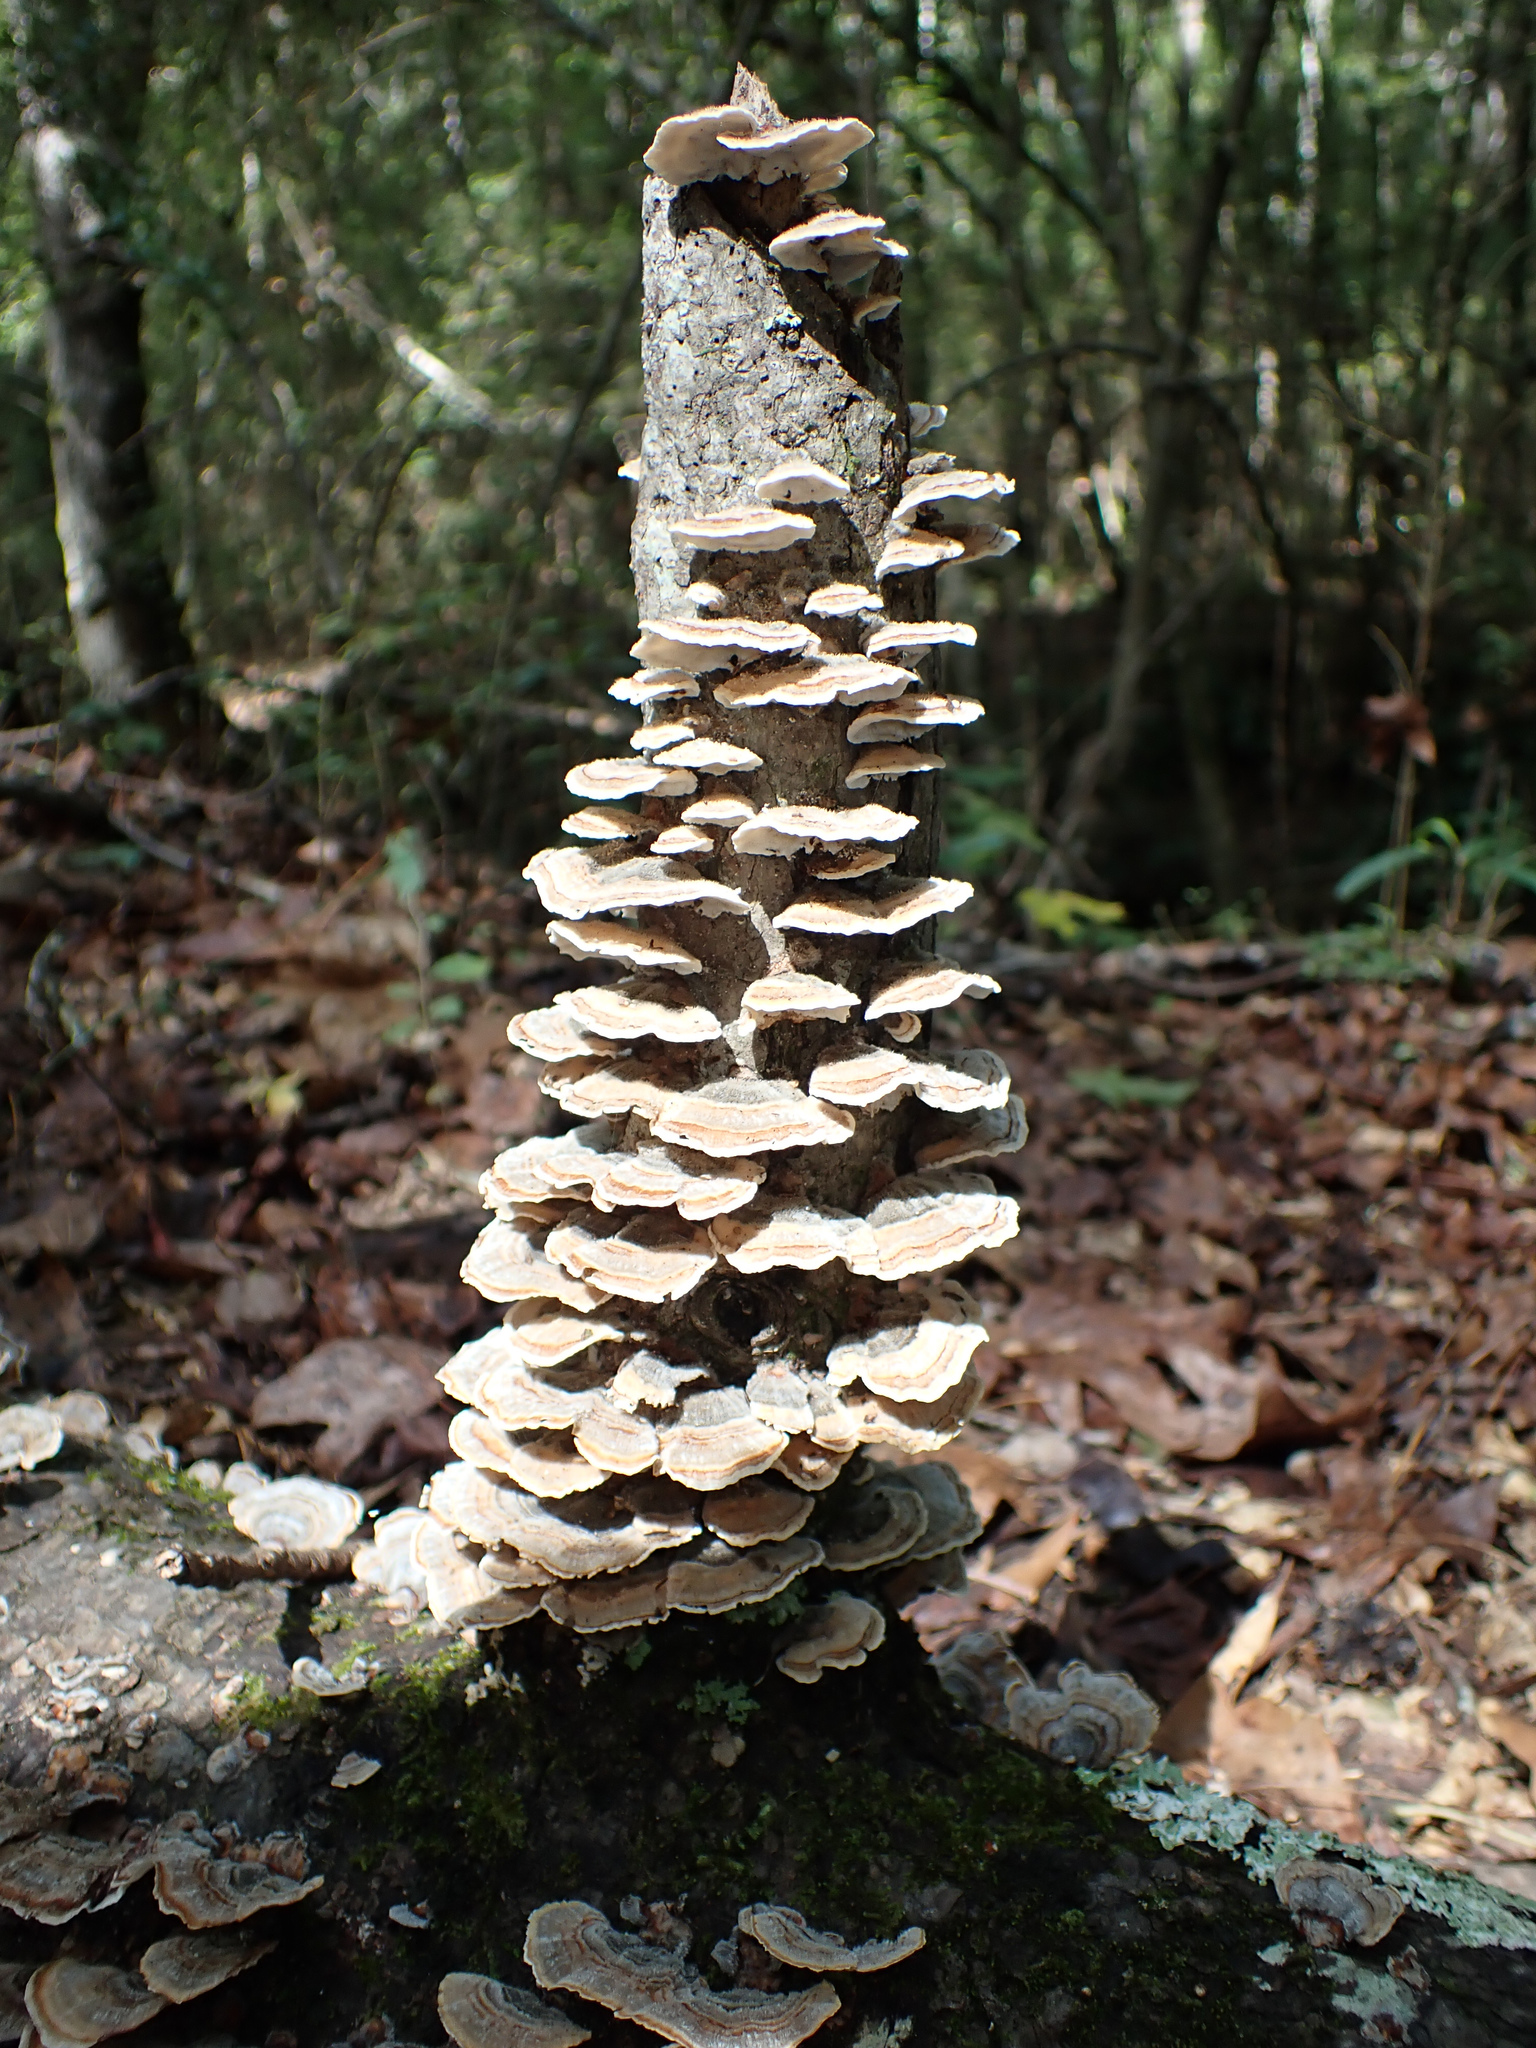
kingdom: Fungi
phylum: Basidiomycota
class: Agaricomycetes
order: Polyporales
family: Polyporaceae
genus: Trametes
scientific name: Trametes versicolor
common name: Turkeytail
